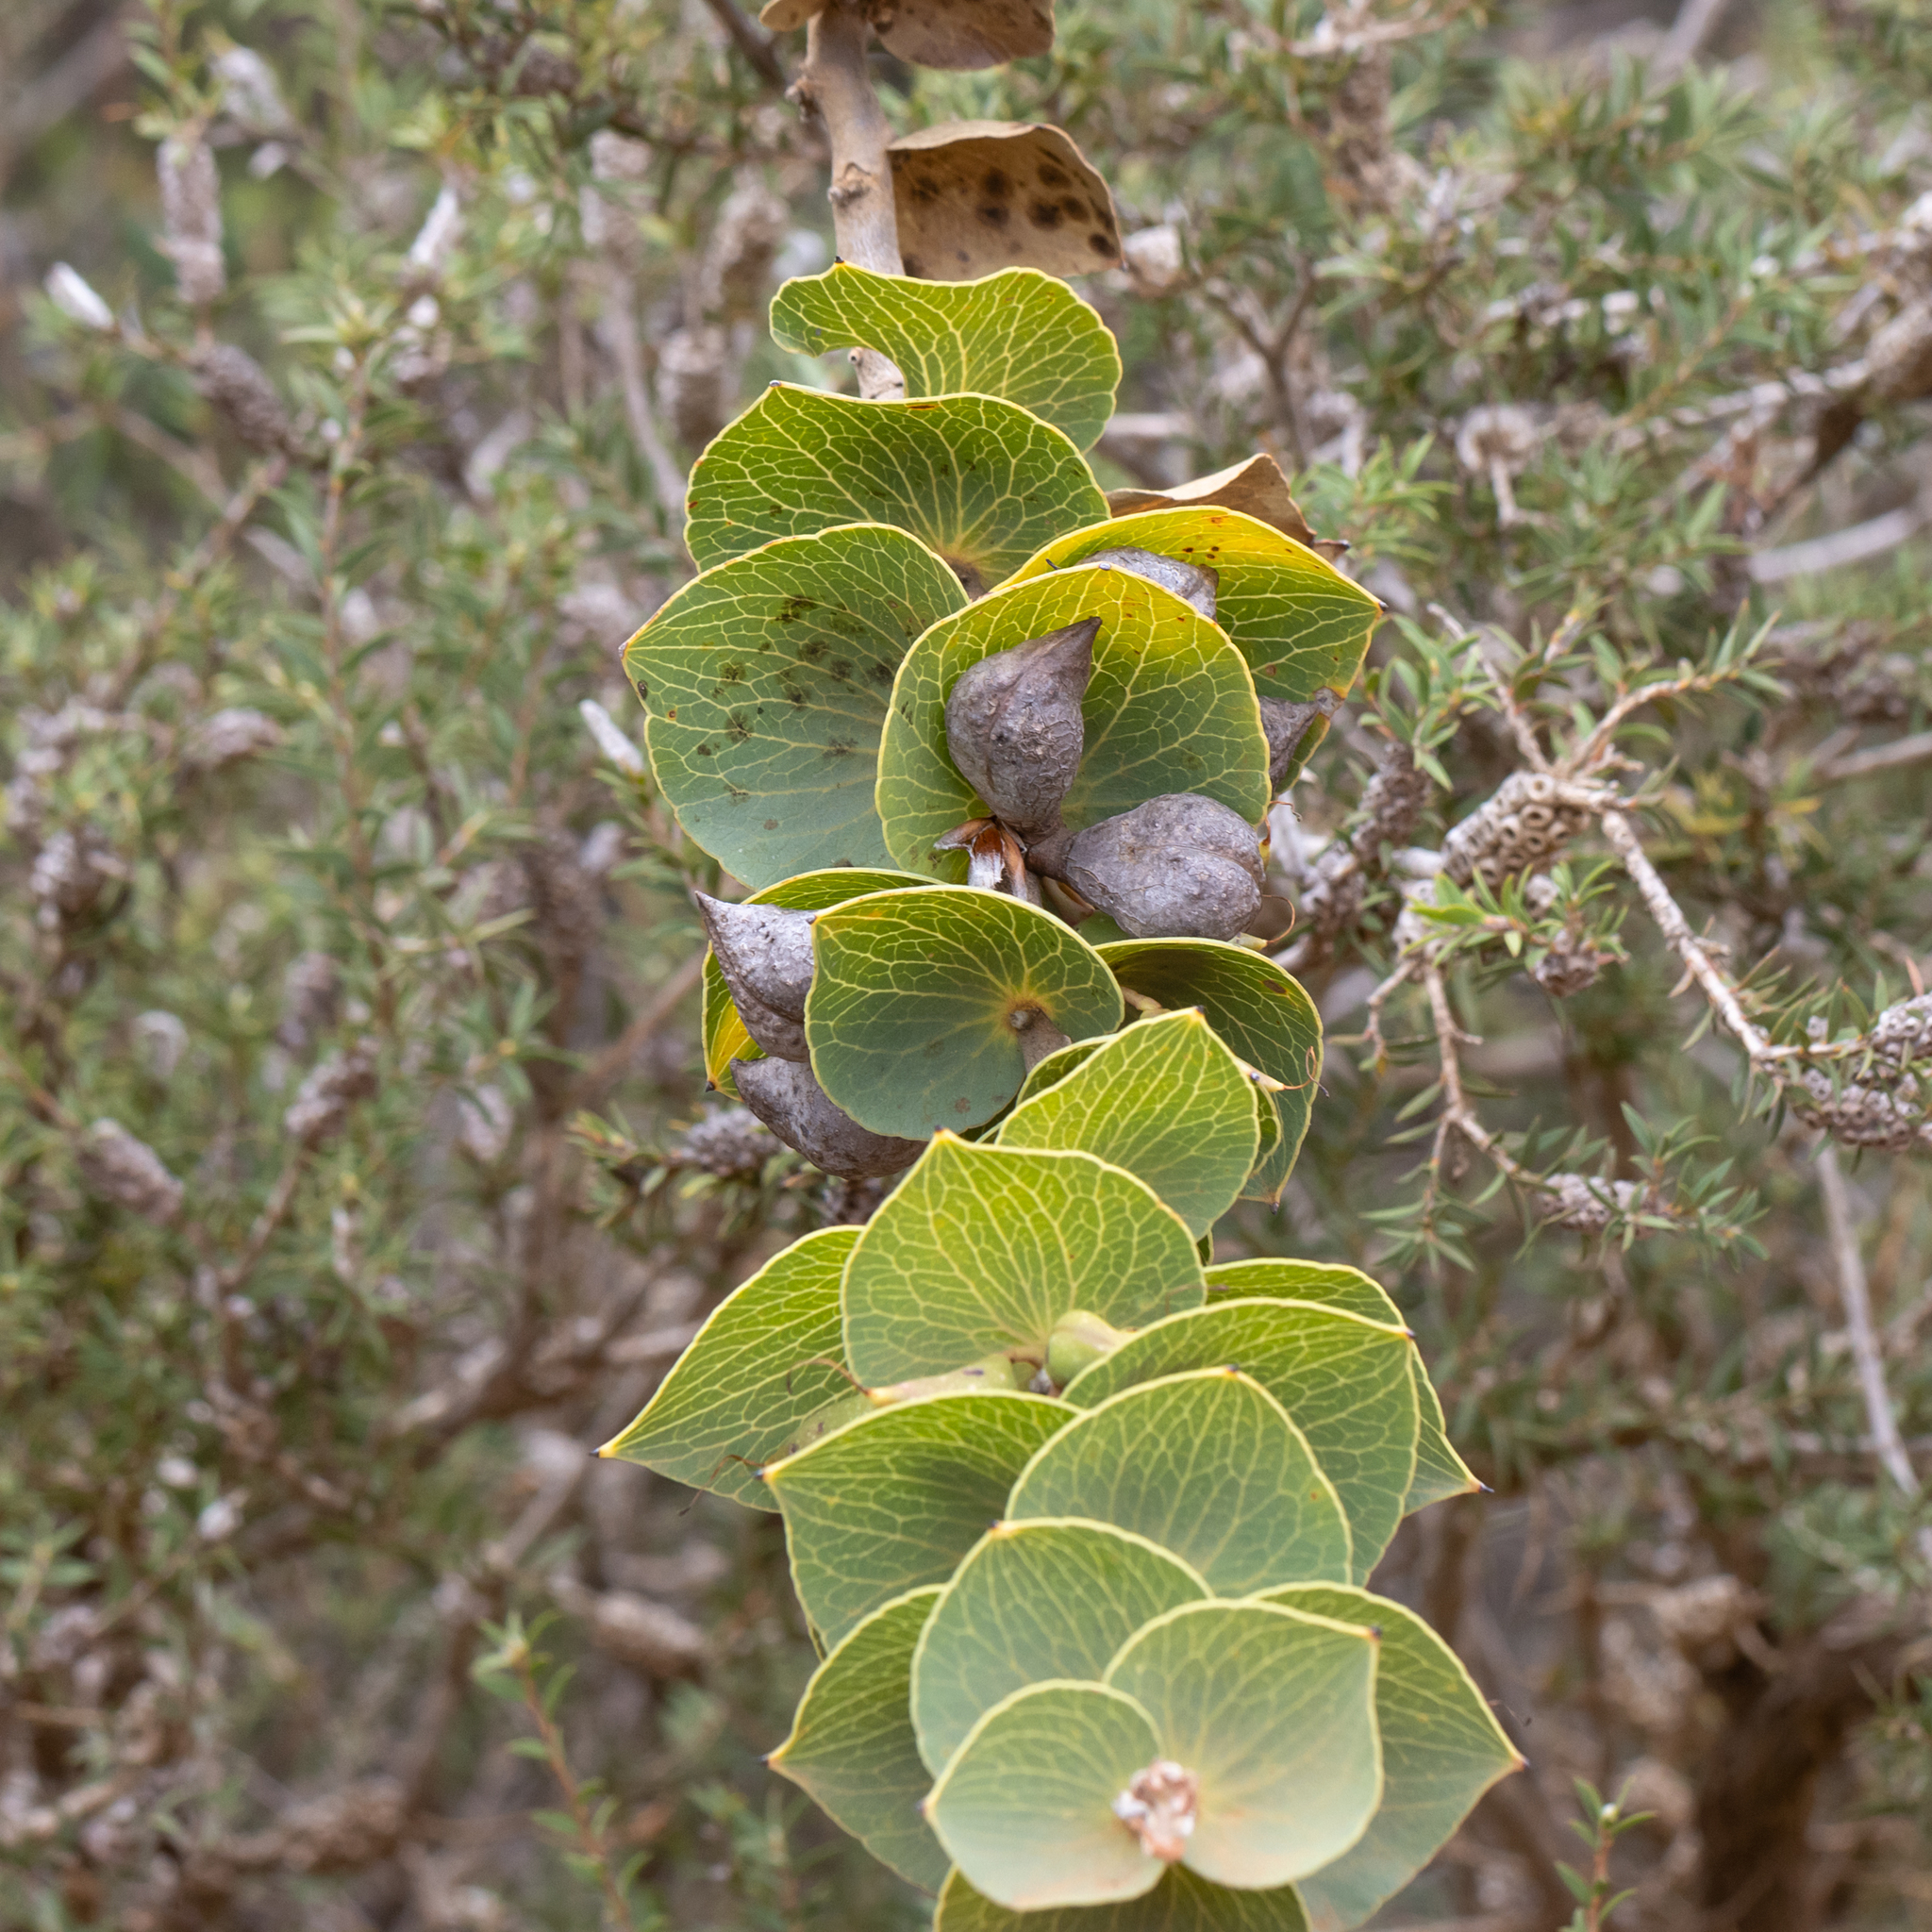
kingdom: Plantae
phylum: Tracheophyta
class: Magnoliopsida
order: Proteales
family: Proteaceae
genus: Hakea
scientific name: Hakea cucullata
